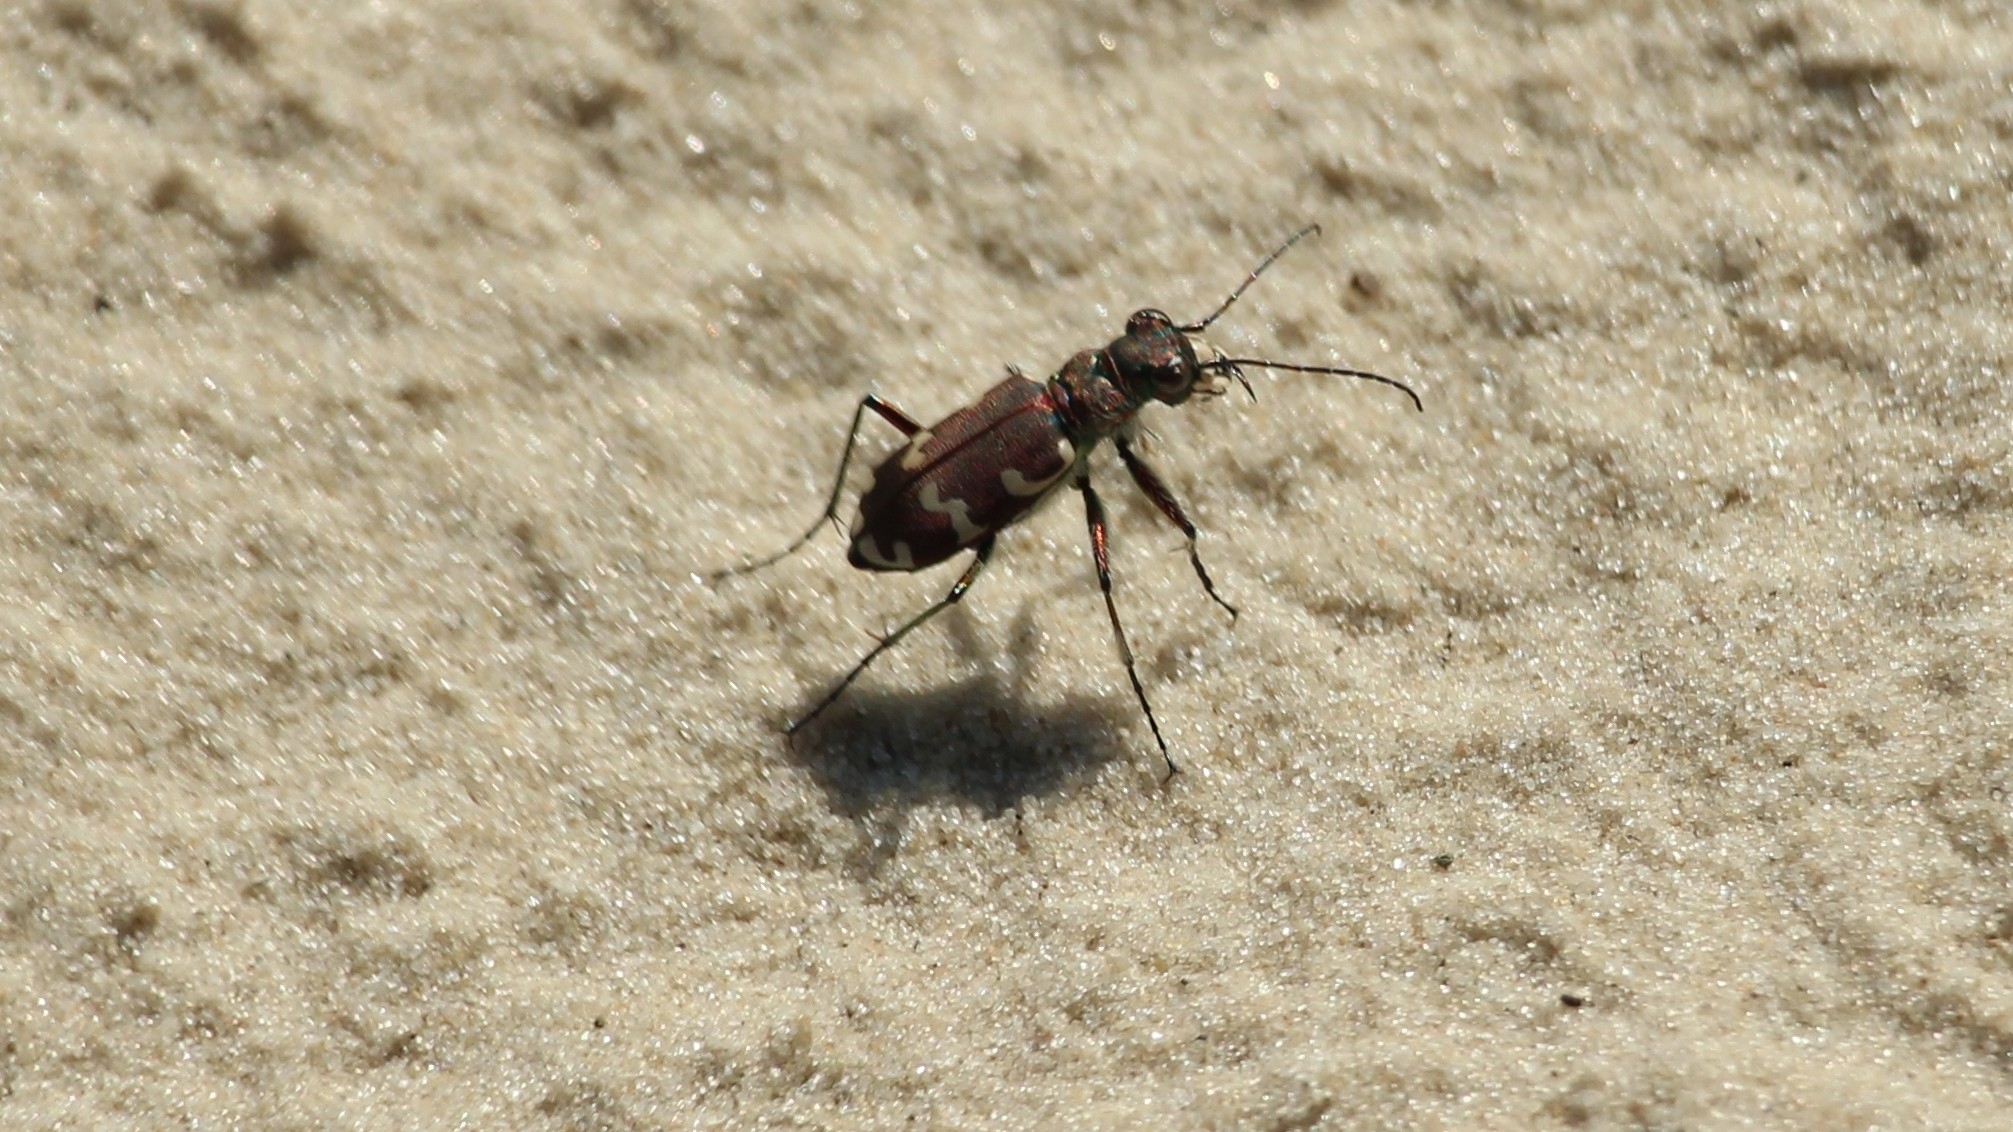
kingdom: Animalia
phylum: Arthropoda
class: Insecta
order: Coleoptera
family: Carabidae
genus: Cicindela
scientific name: Cicindela hybrida
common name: Northern dune tiger beetle
